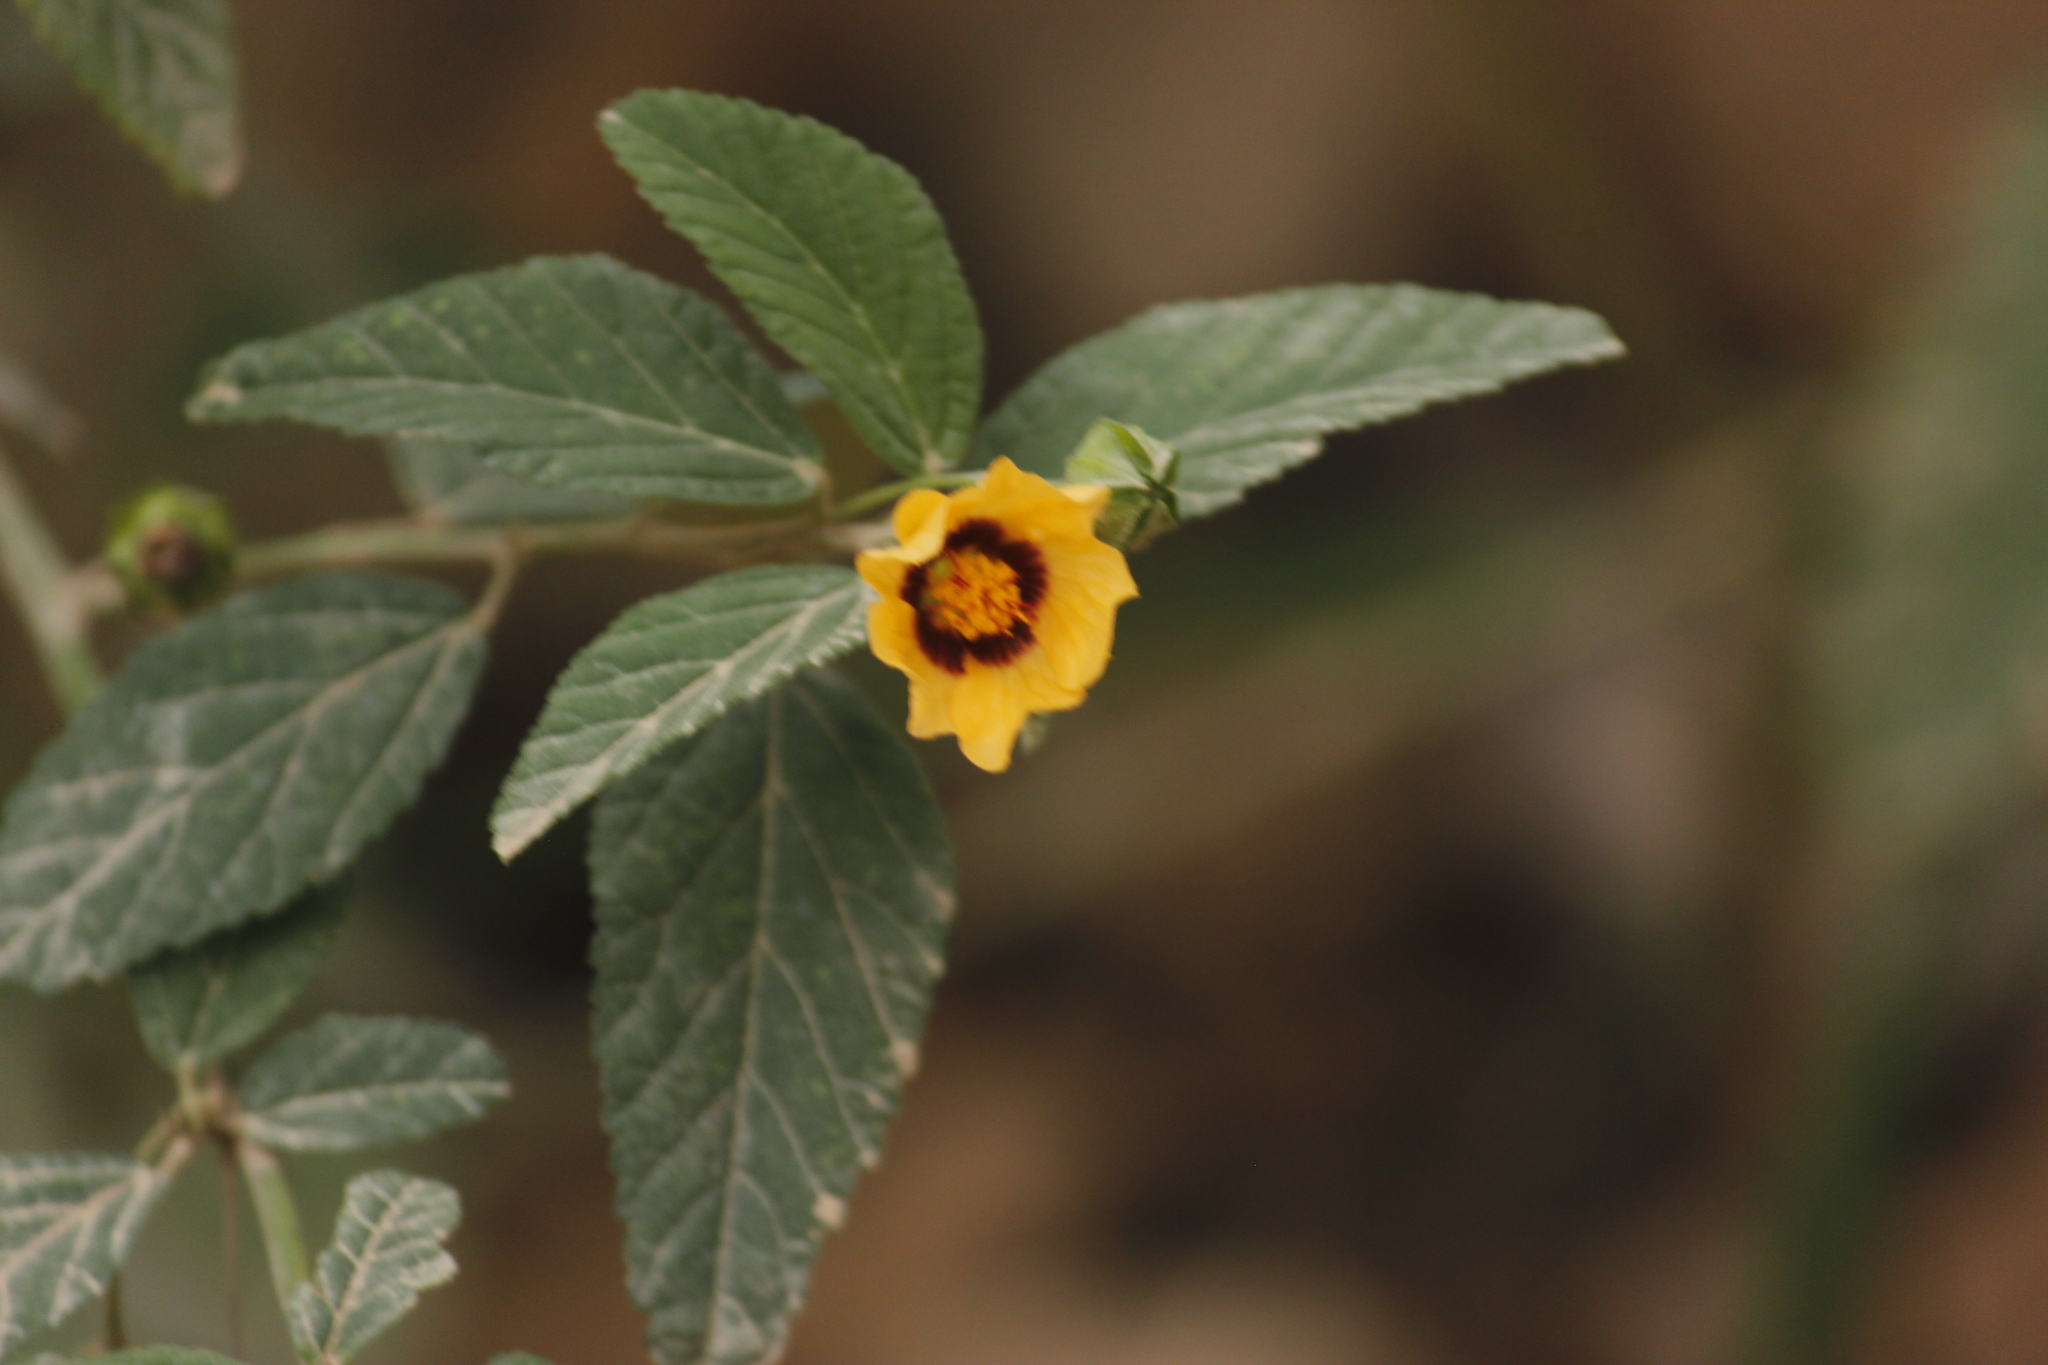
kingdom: Plantae
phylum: Tracheophyta
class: Magnoliopsida
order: Malvales
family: Malvaceae
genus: Sida
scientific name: Sida poeppigiana
